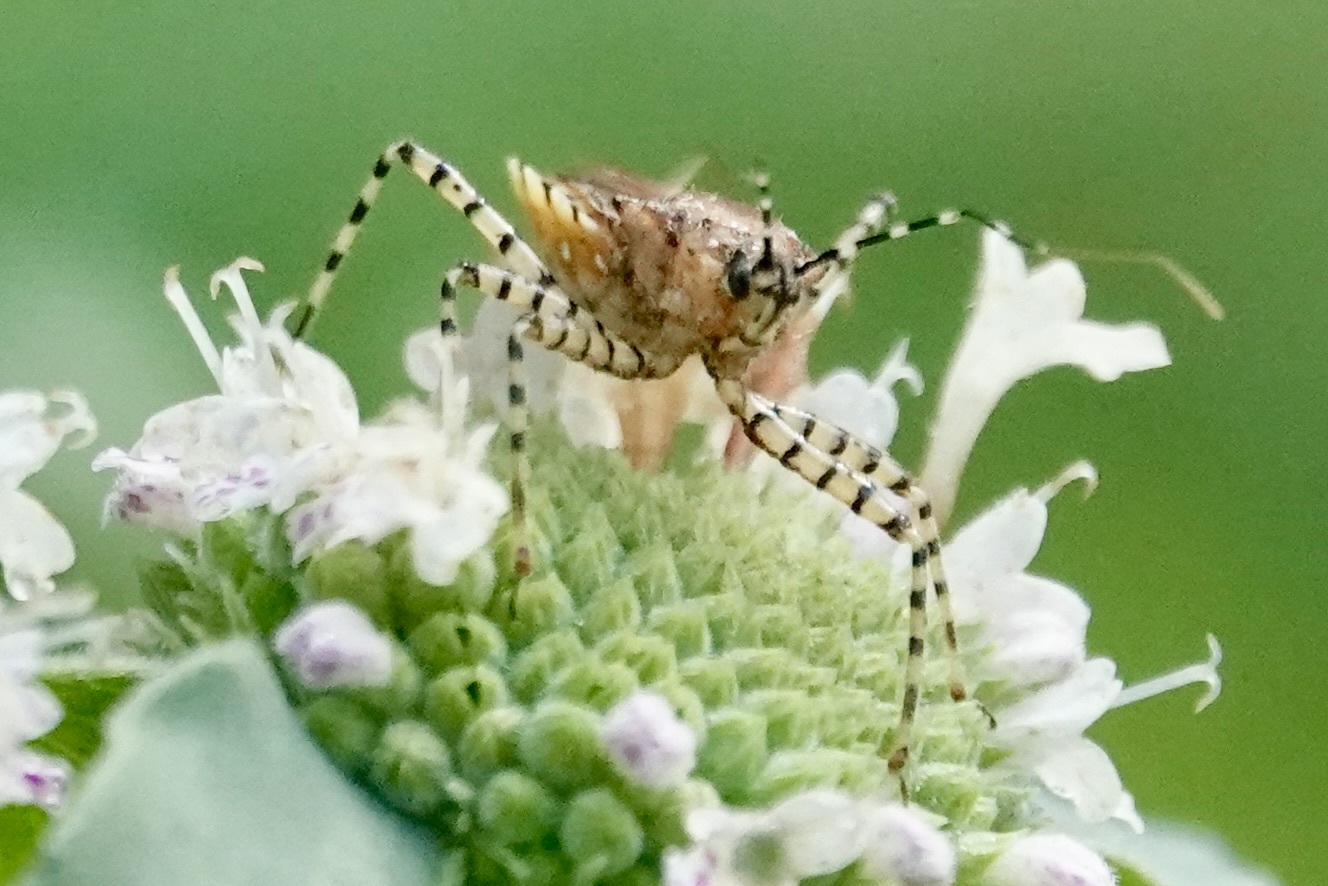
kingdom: Animalia
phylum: Arthropoda
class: Insecta
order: Hemiptera
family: Reduviidae
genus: Pselliopus
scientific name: Pselliopus cinctus
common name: Ringed assassin bug
